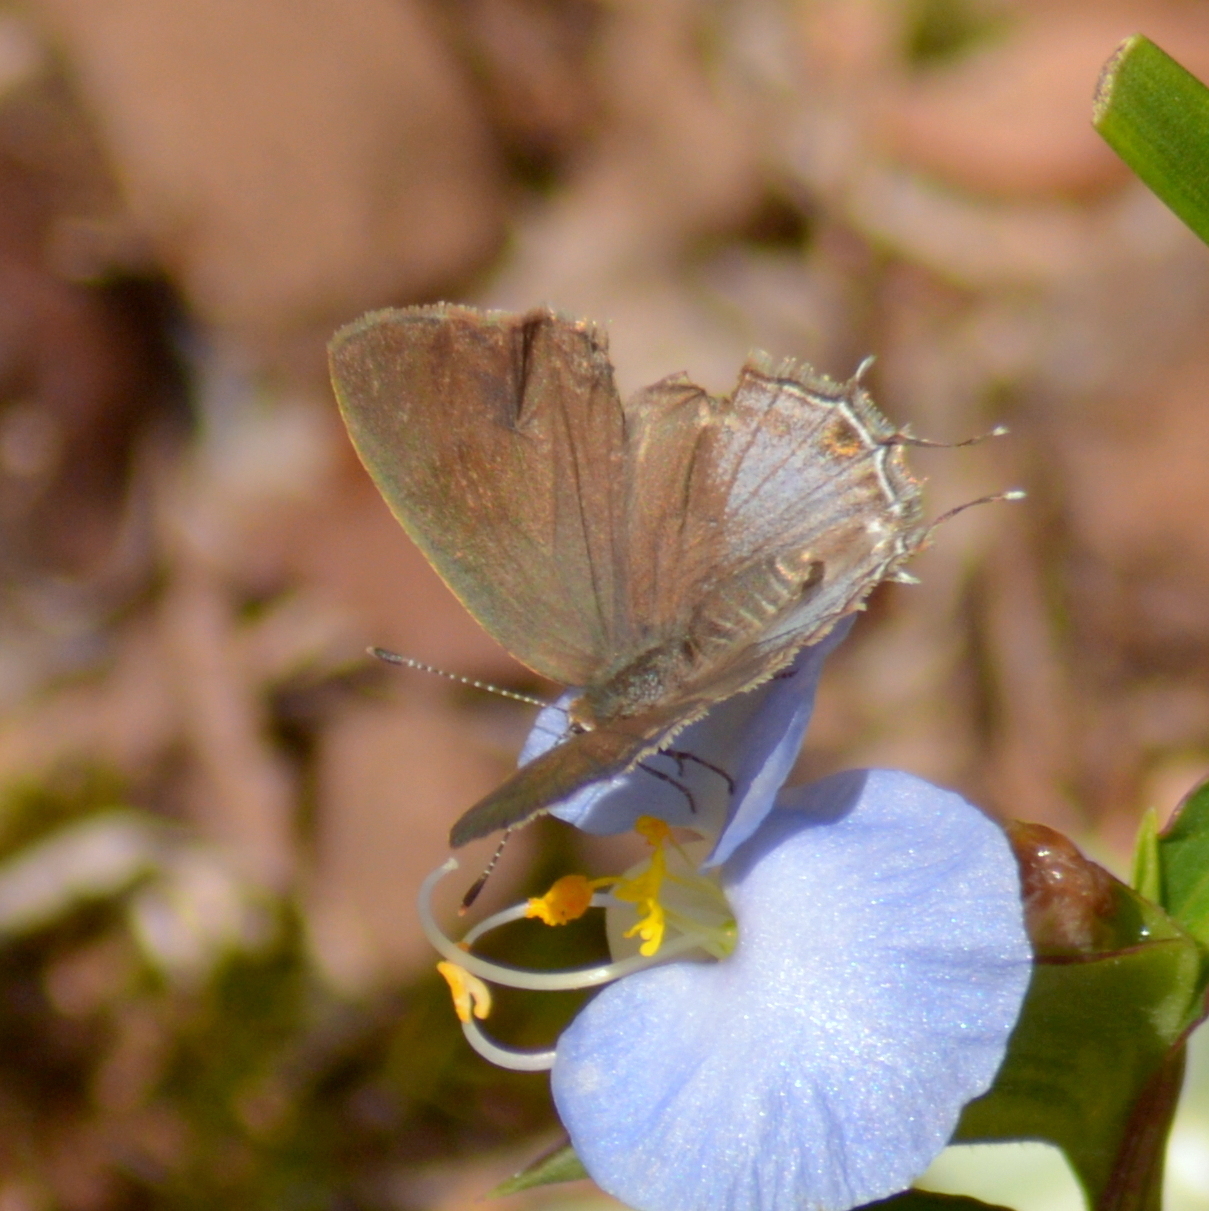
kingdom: Animalia
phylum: Arthropoda
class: Insecta
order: Lepidoptera
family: Lycaenidae
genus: Strymon
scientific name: Strymon
